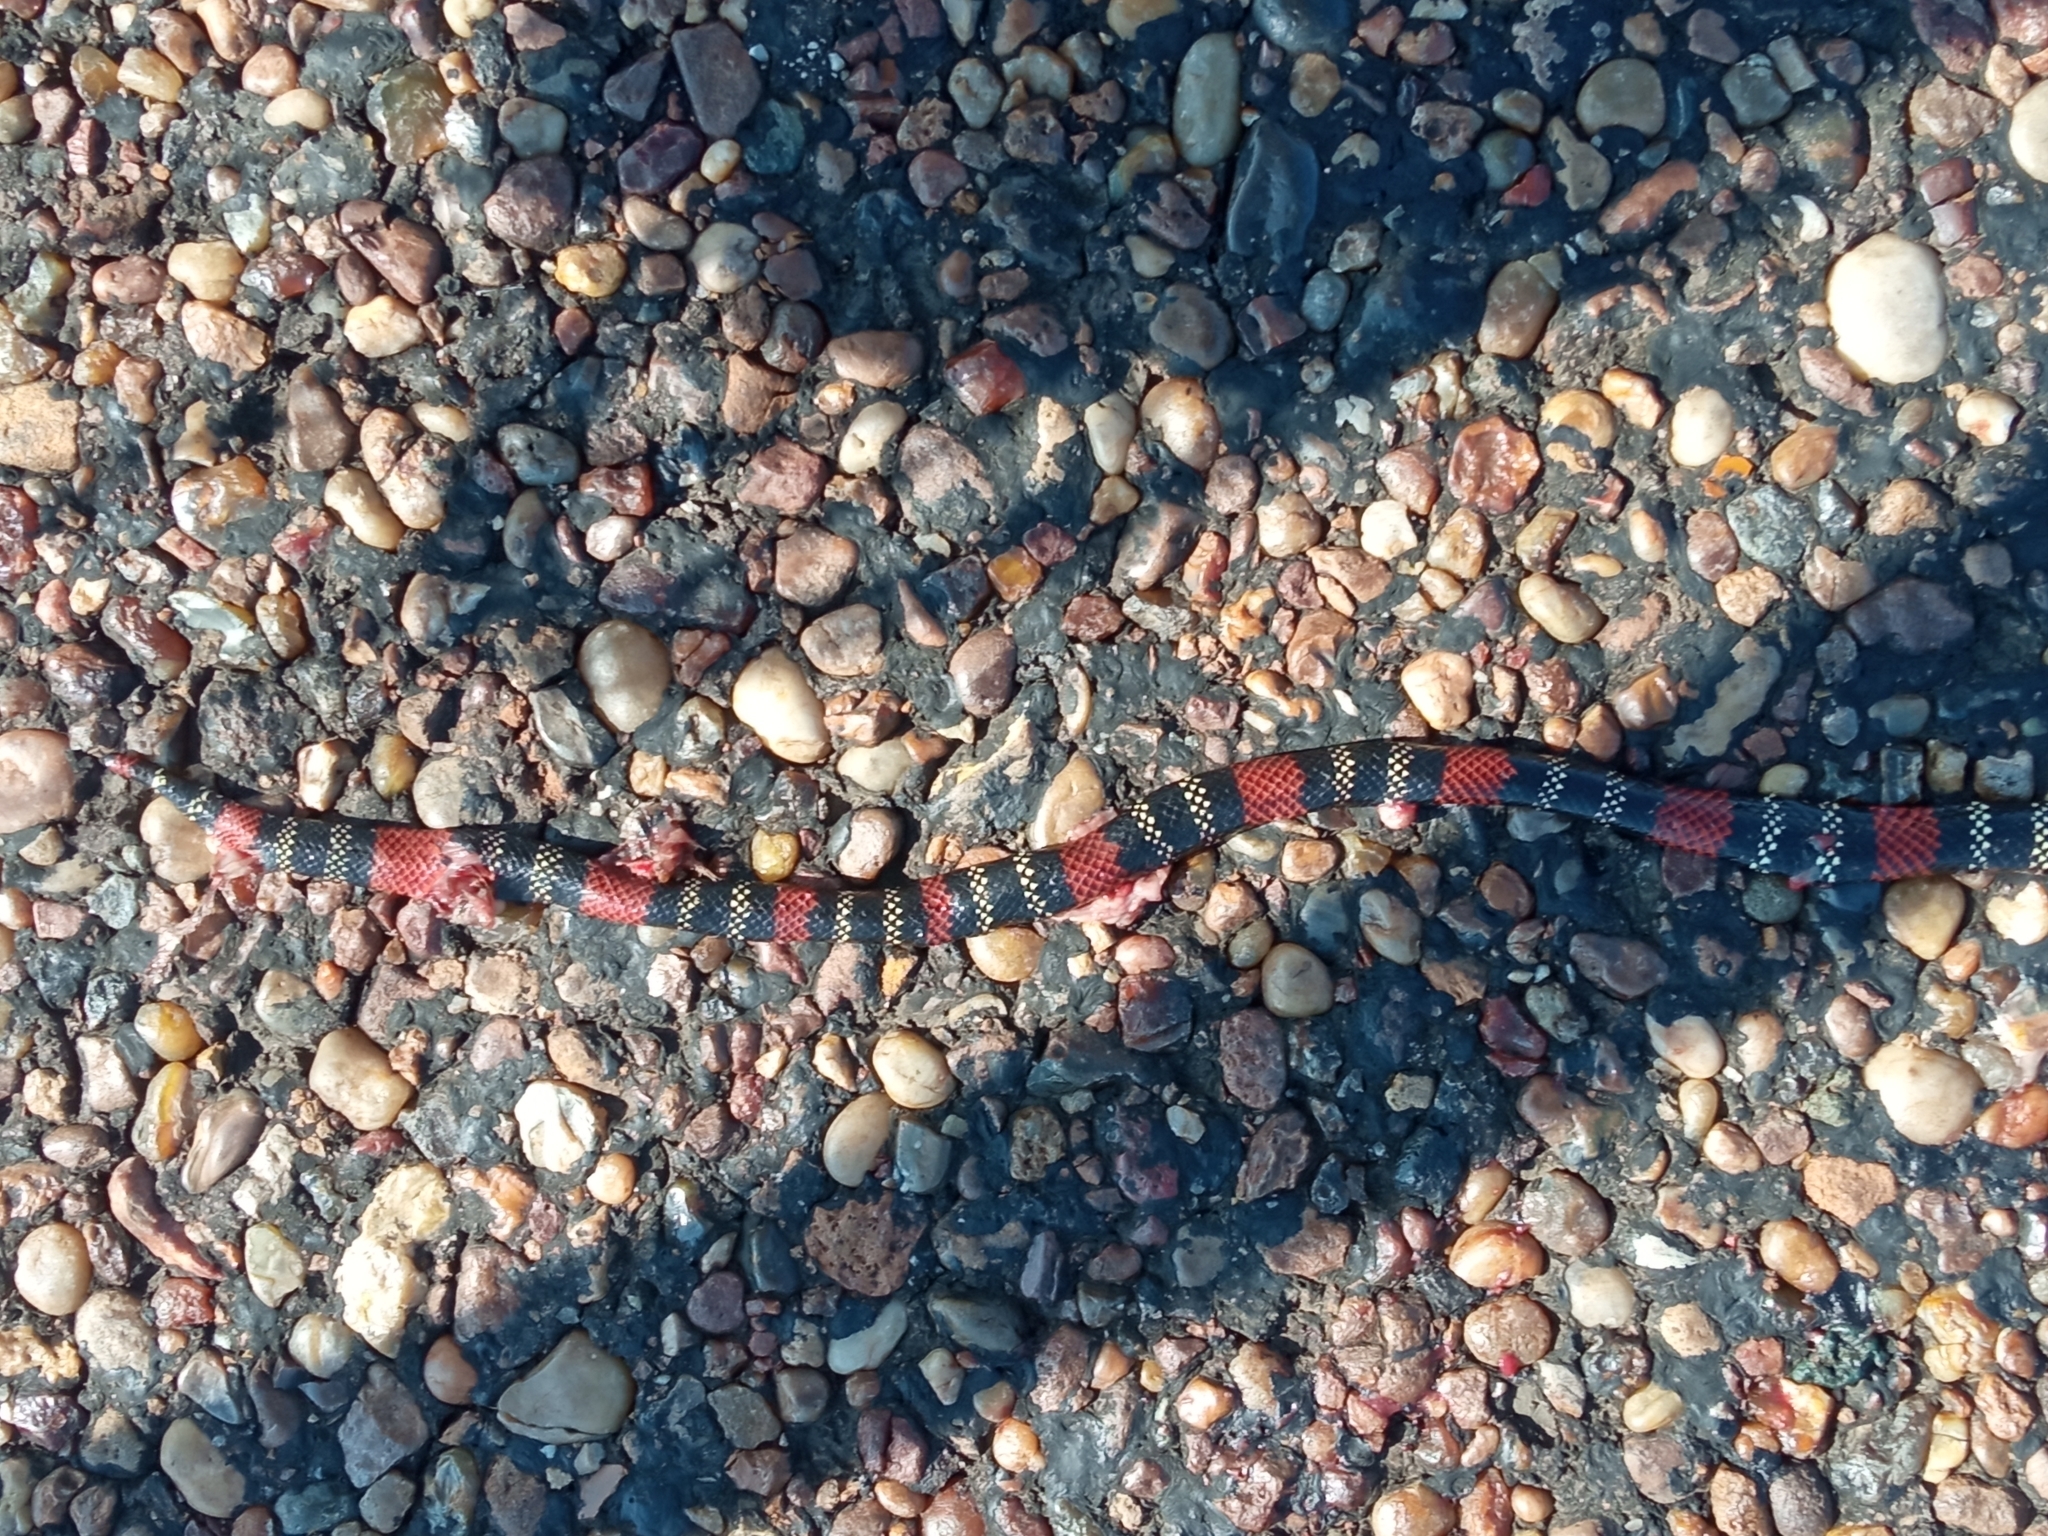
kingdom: Animalia
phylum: Chordata
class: Squamata
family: Elapidae
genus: Micrurus
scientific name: Micrurus altirostris
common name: Uruguayan coral snake
